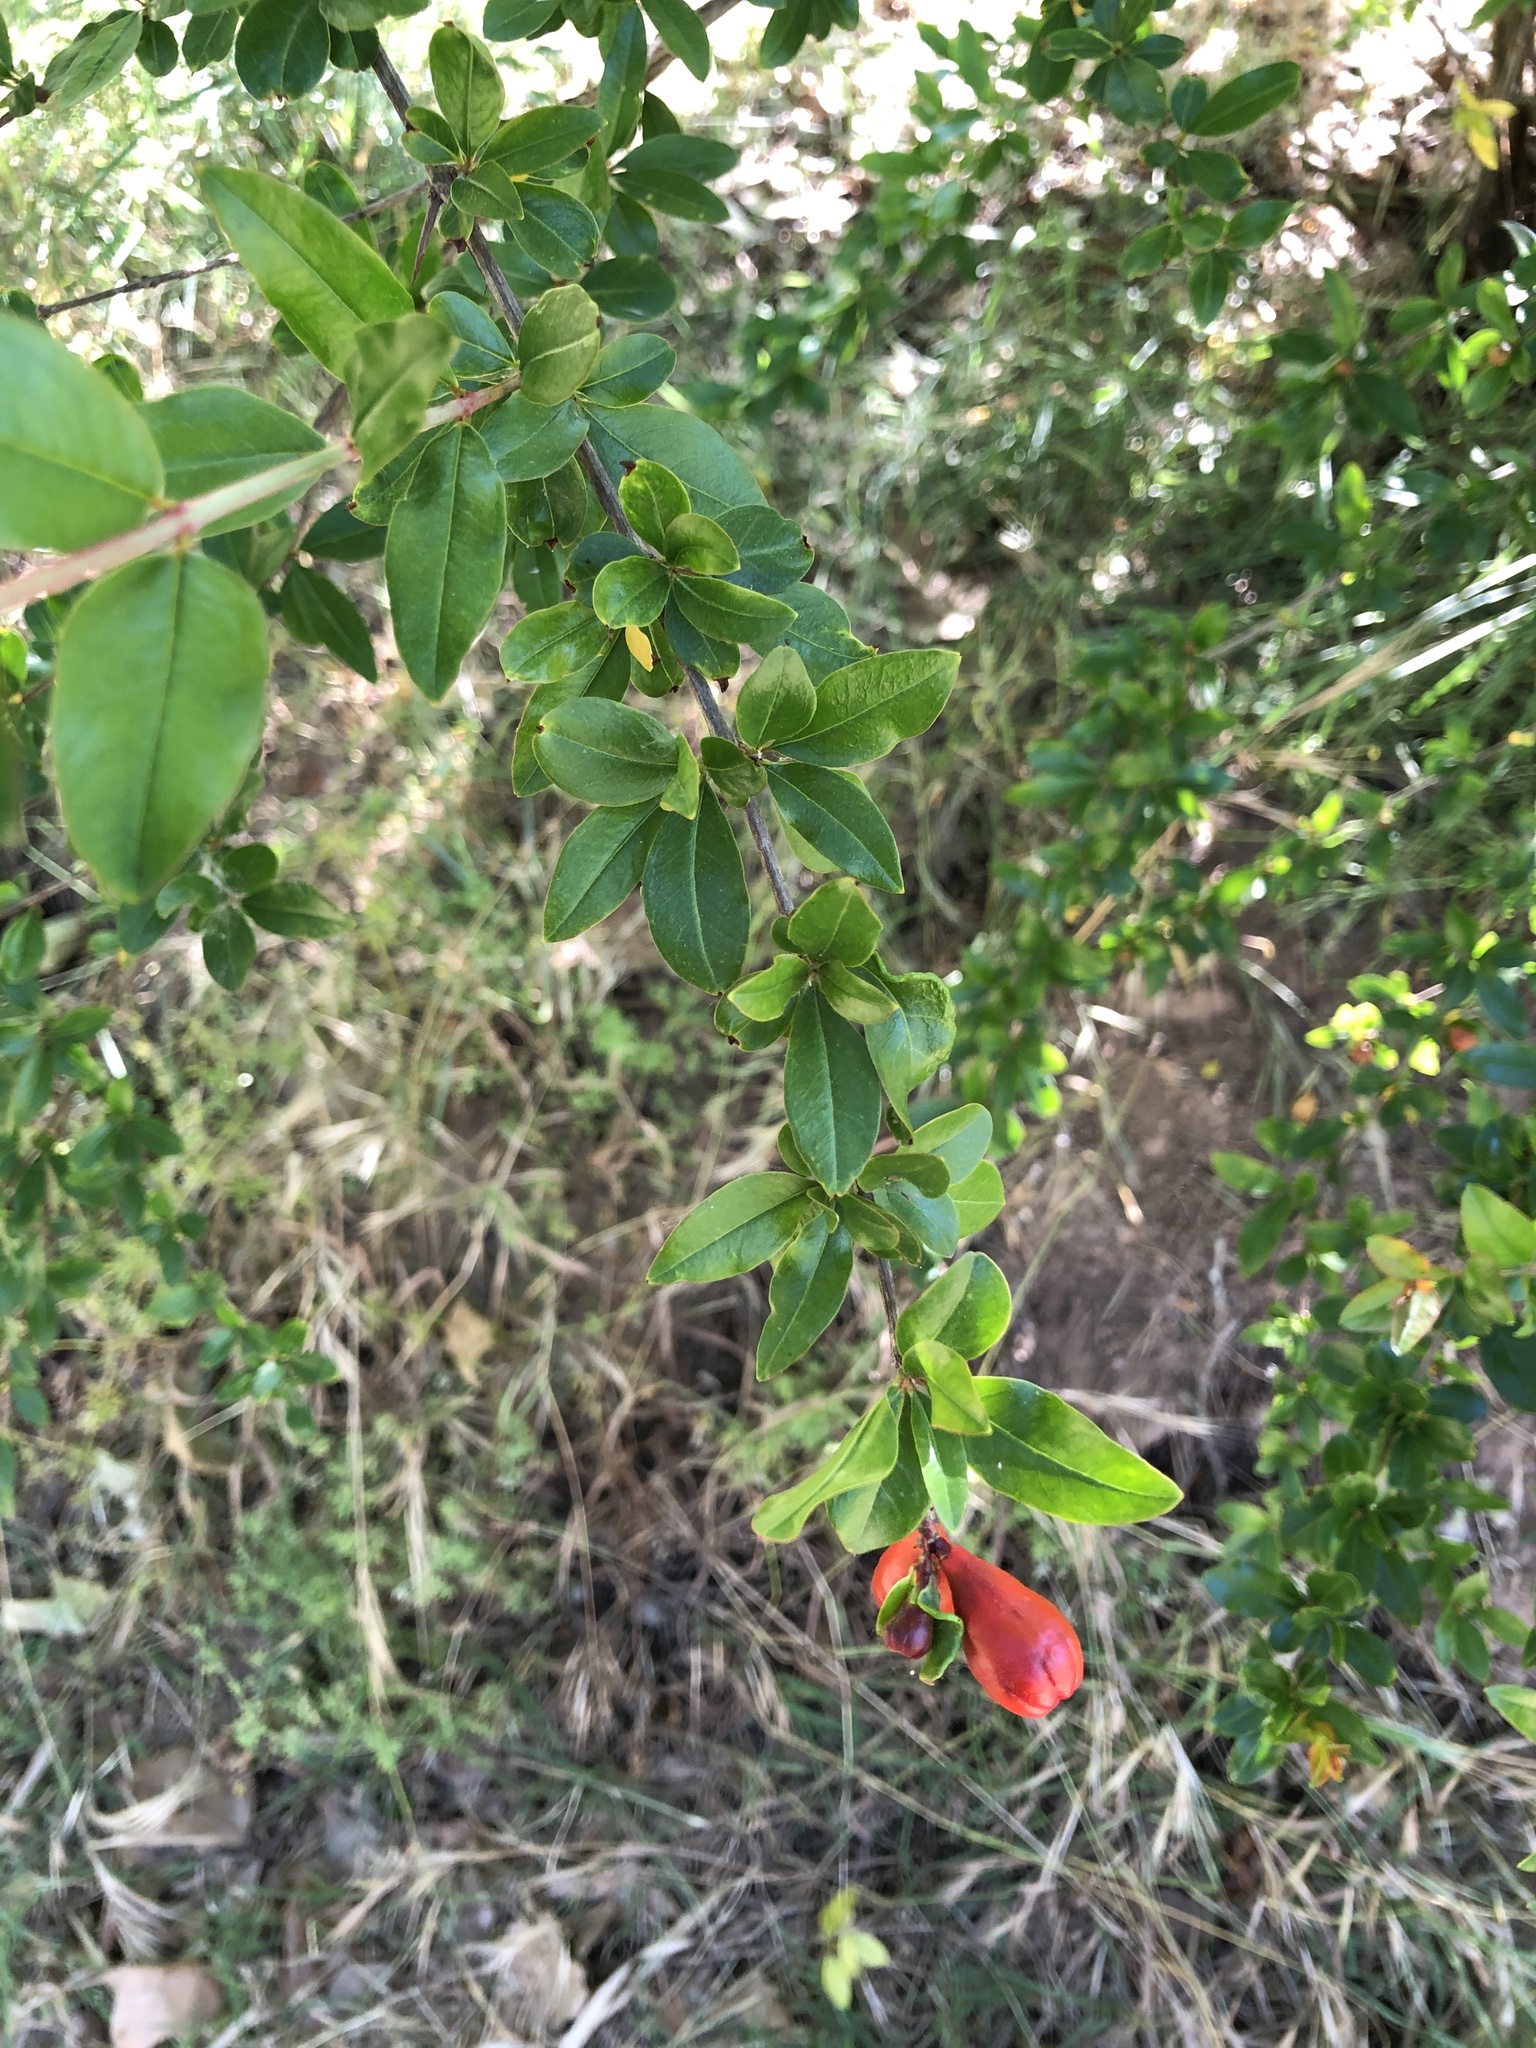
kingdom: Plantae
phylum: Tracheophyta
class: Magnoliopsida
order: Myrtales
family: Lythraceae
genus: Punica
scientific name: Punica granatum
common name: Pomegranate
